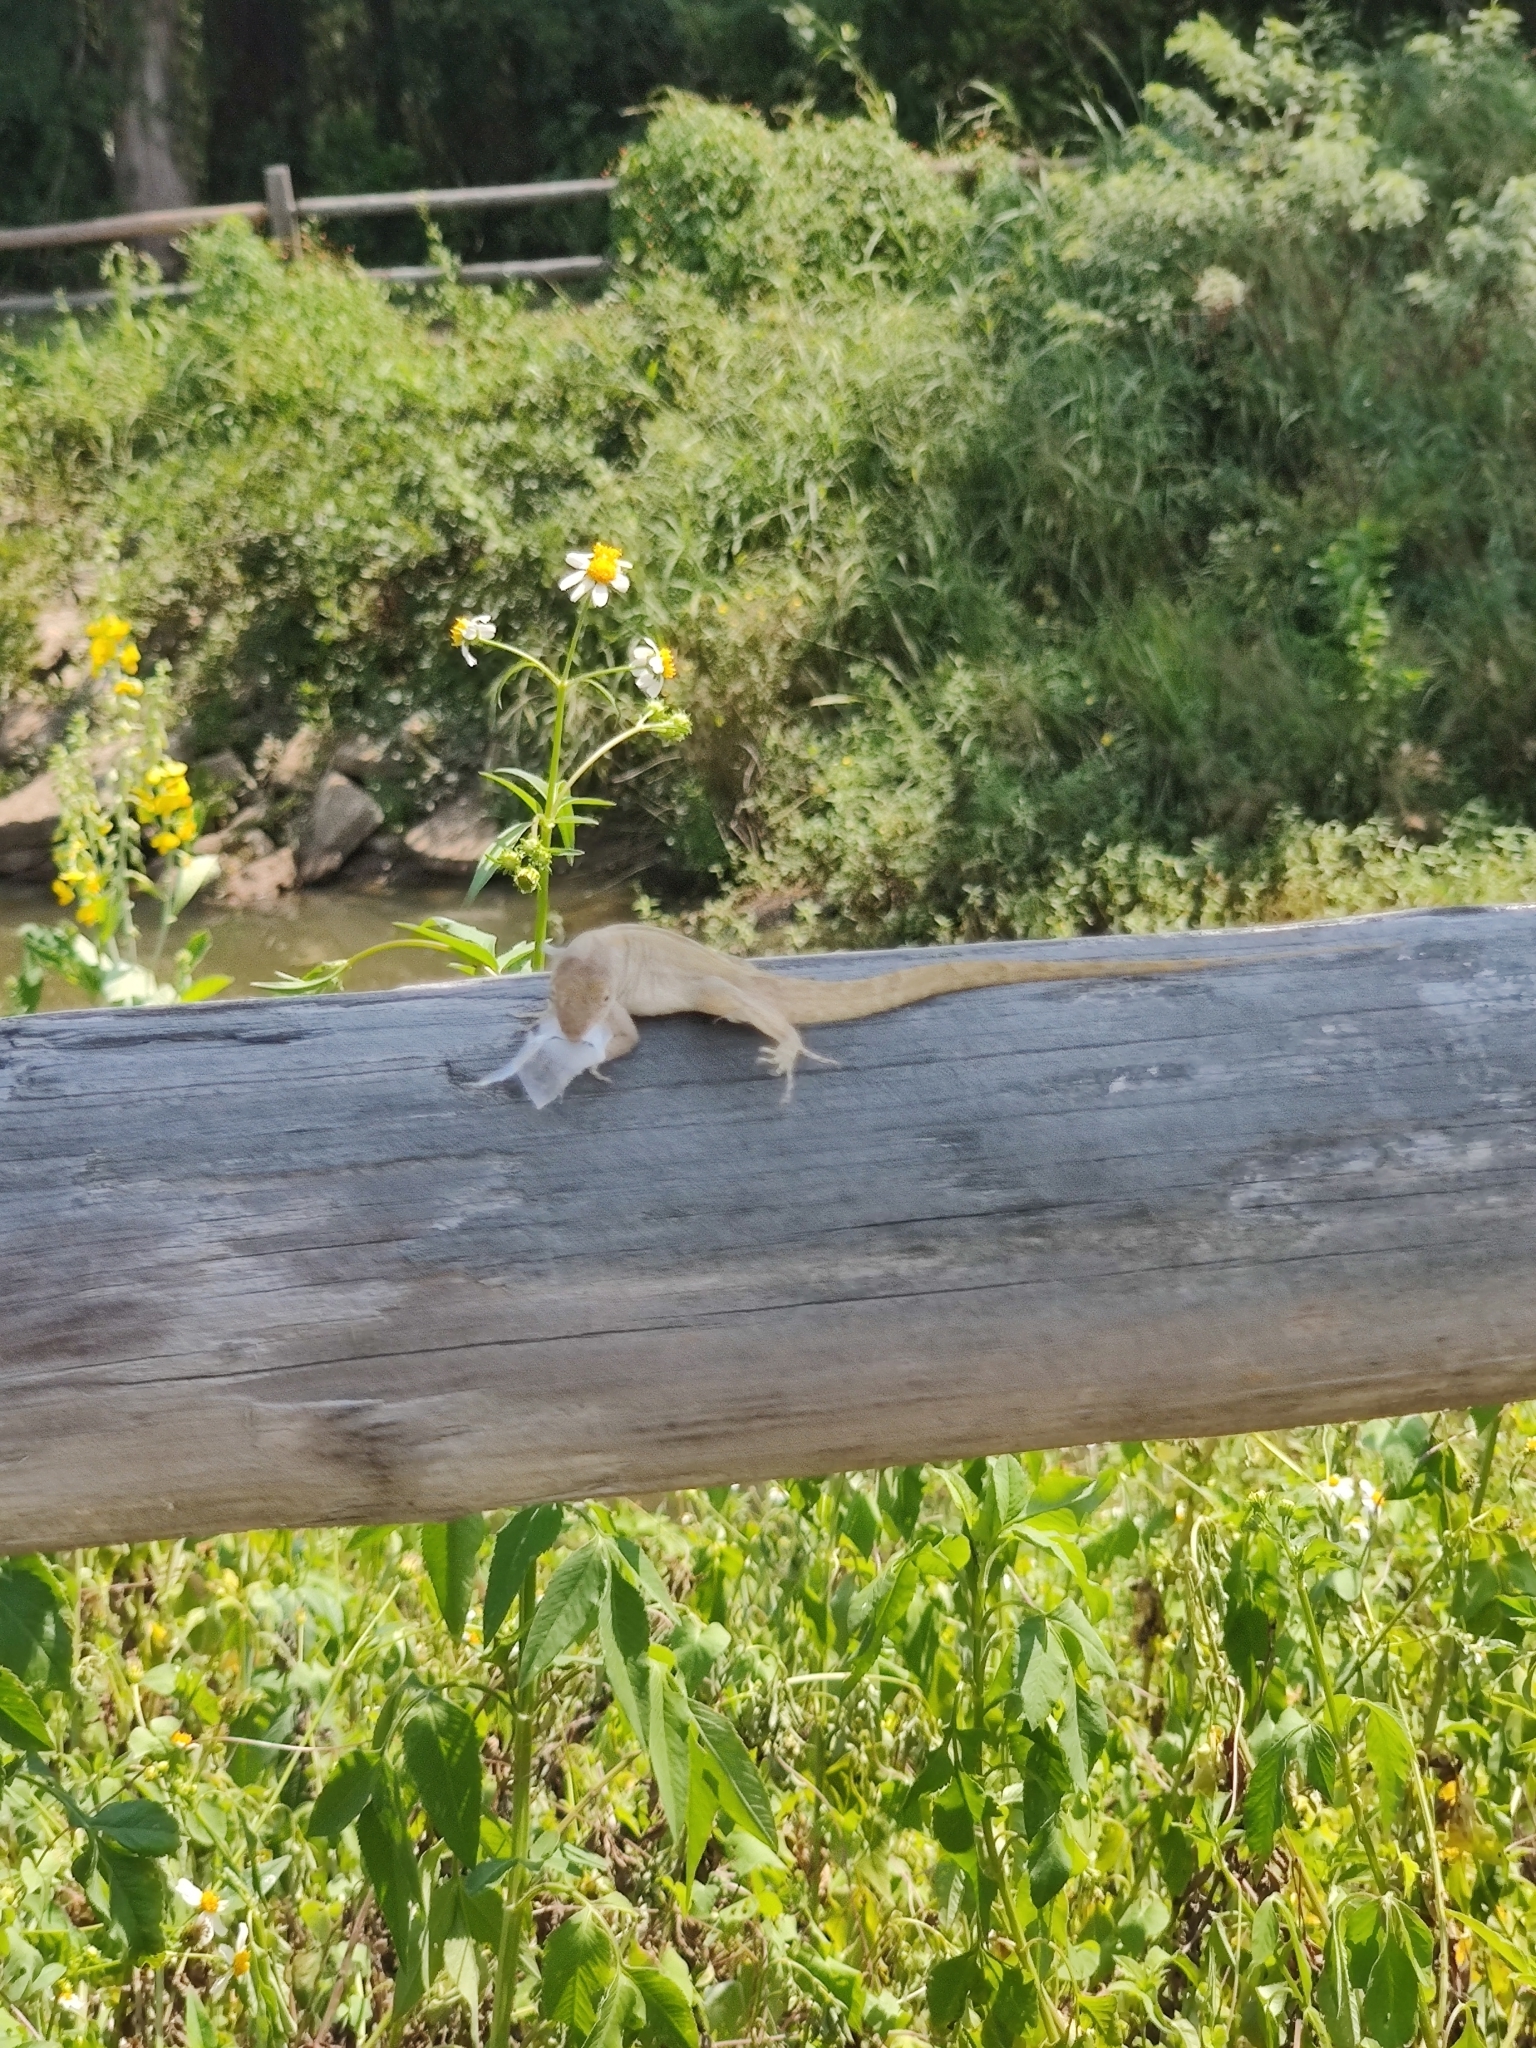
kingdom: Animalia
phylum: Chordata
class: Squamata
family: Dactyloidae
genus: Anolis
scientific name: Anolis sagrei
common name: Brown anole
